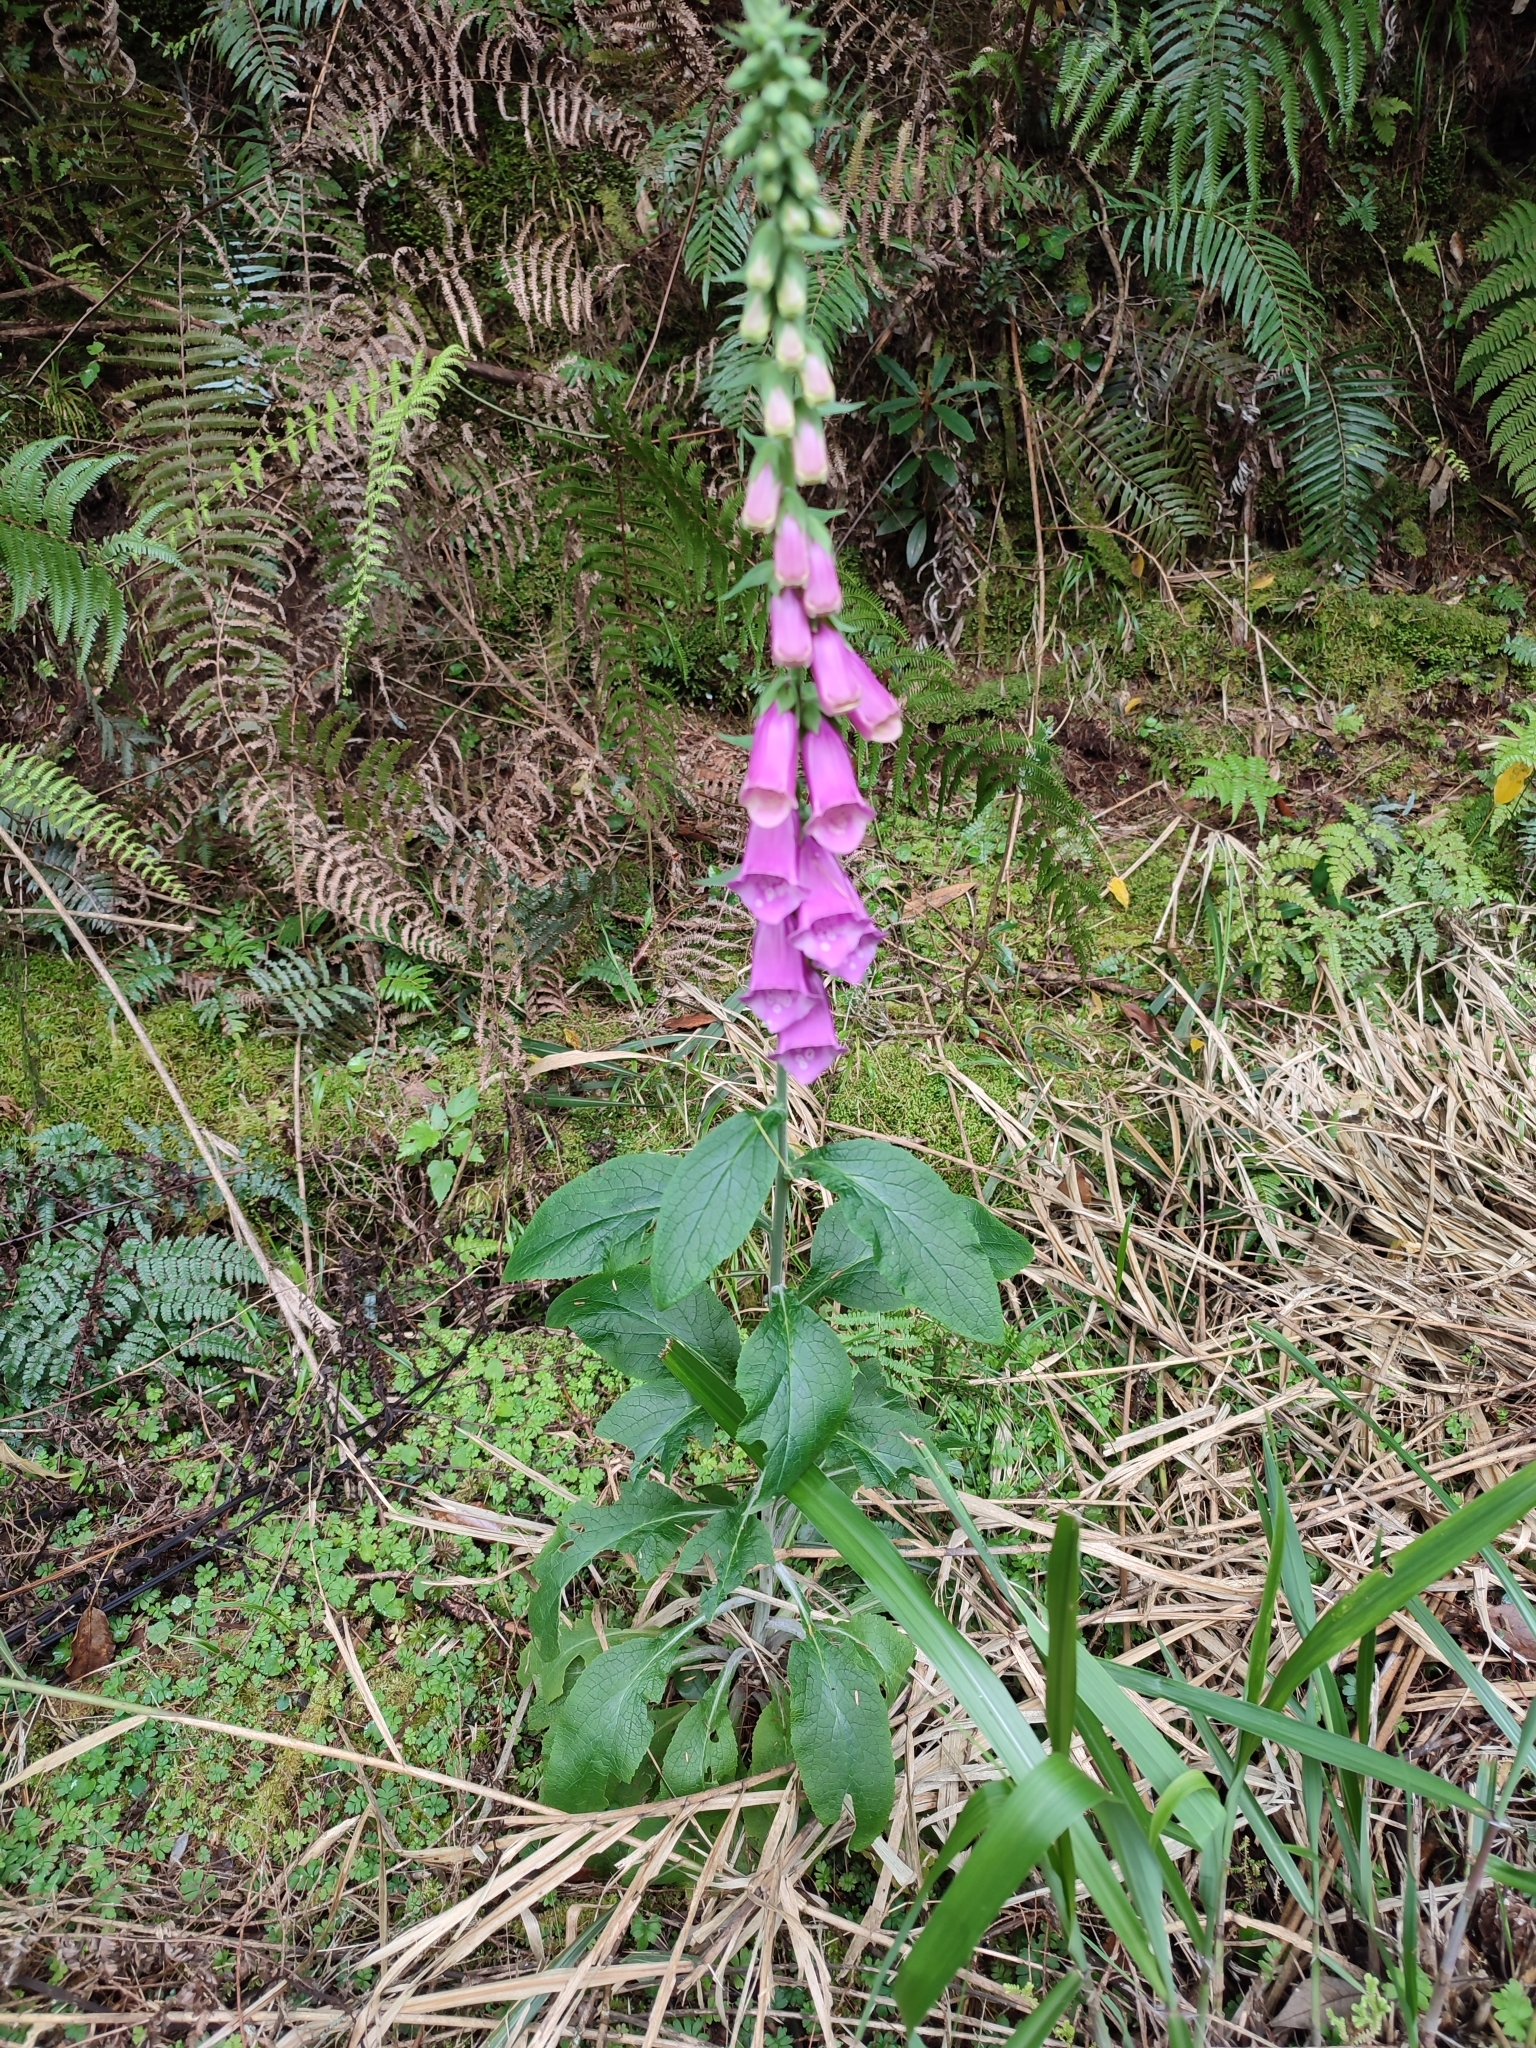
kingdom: Plantae
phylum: Tracheophyta
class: Magnoliopsida
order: Lamiales
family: Plantaginaceae
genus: Digitalis
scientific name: Digitalis purpurea
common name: Foxglove
